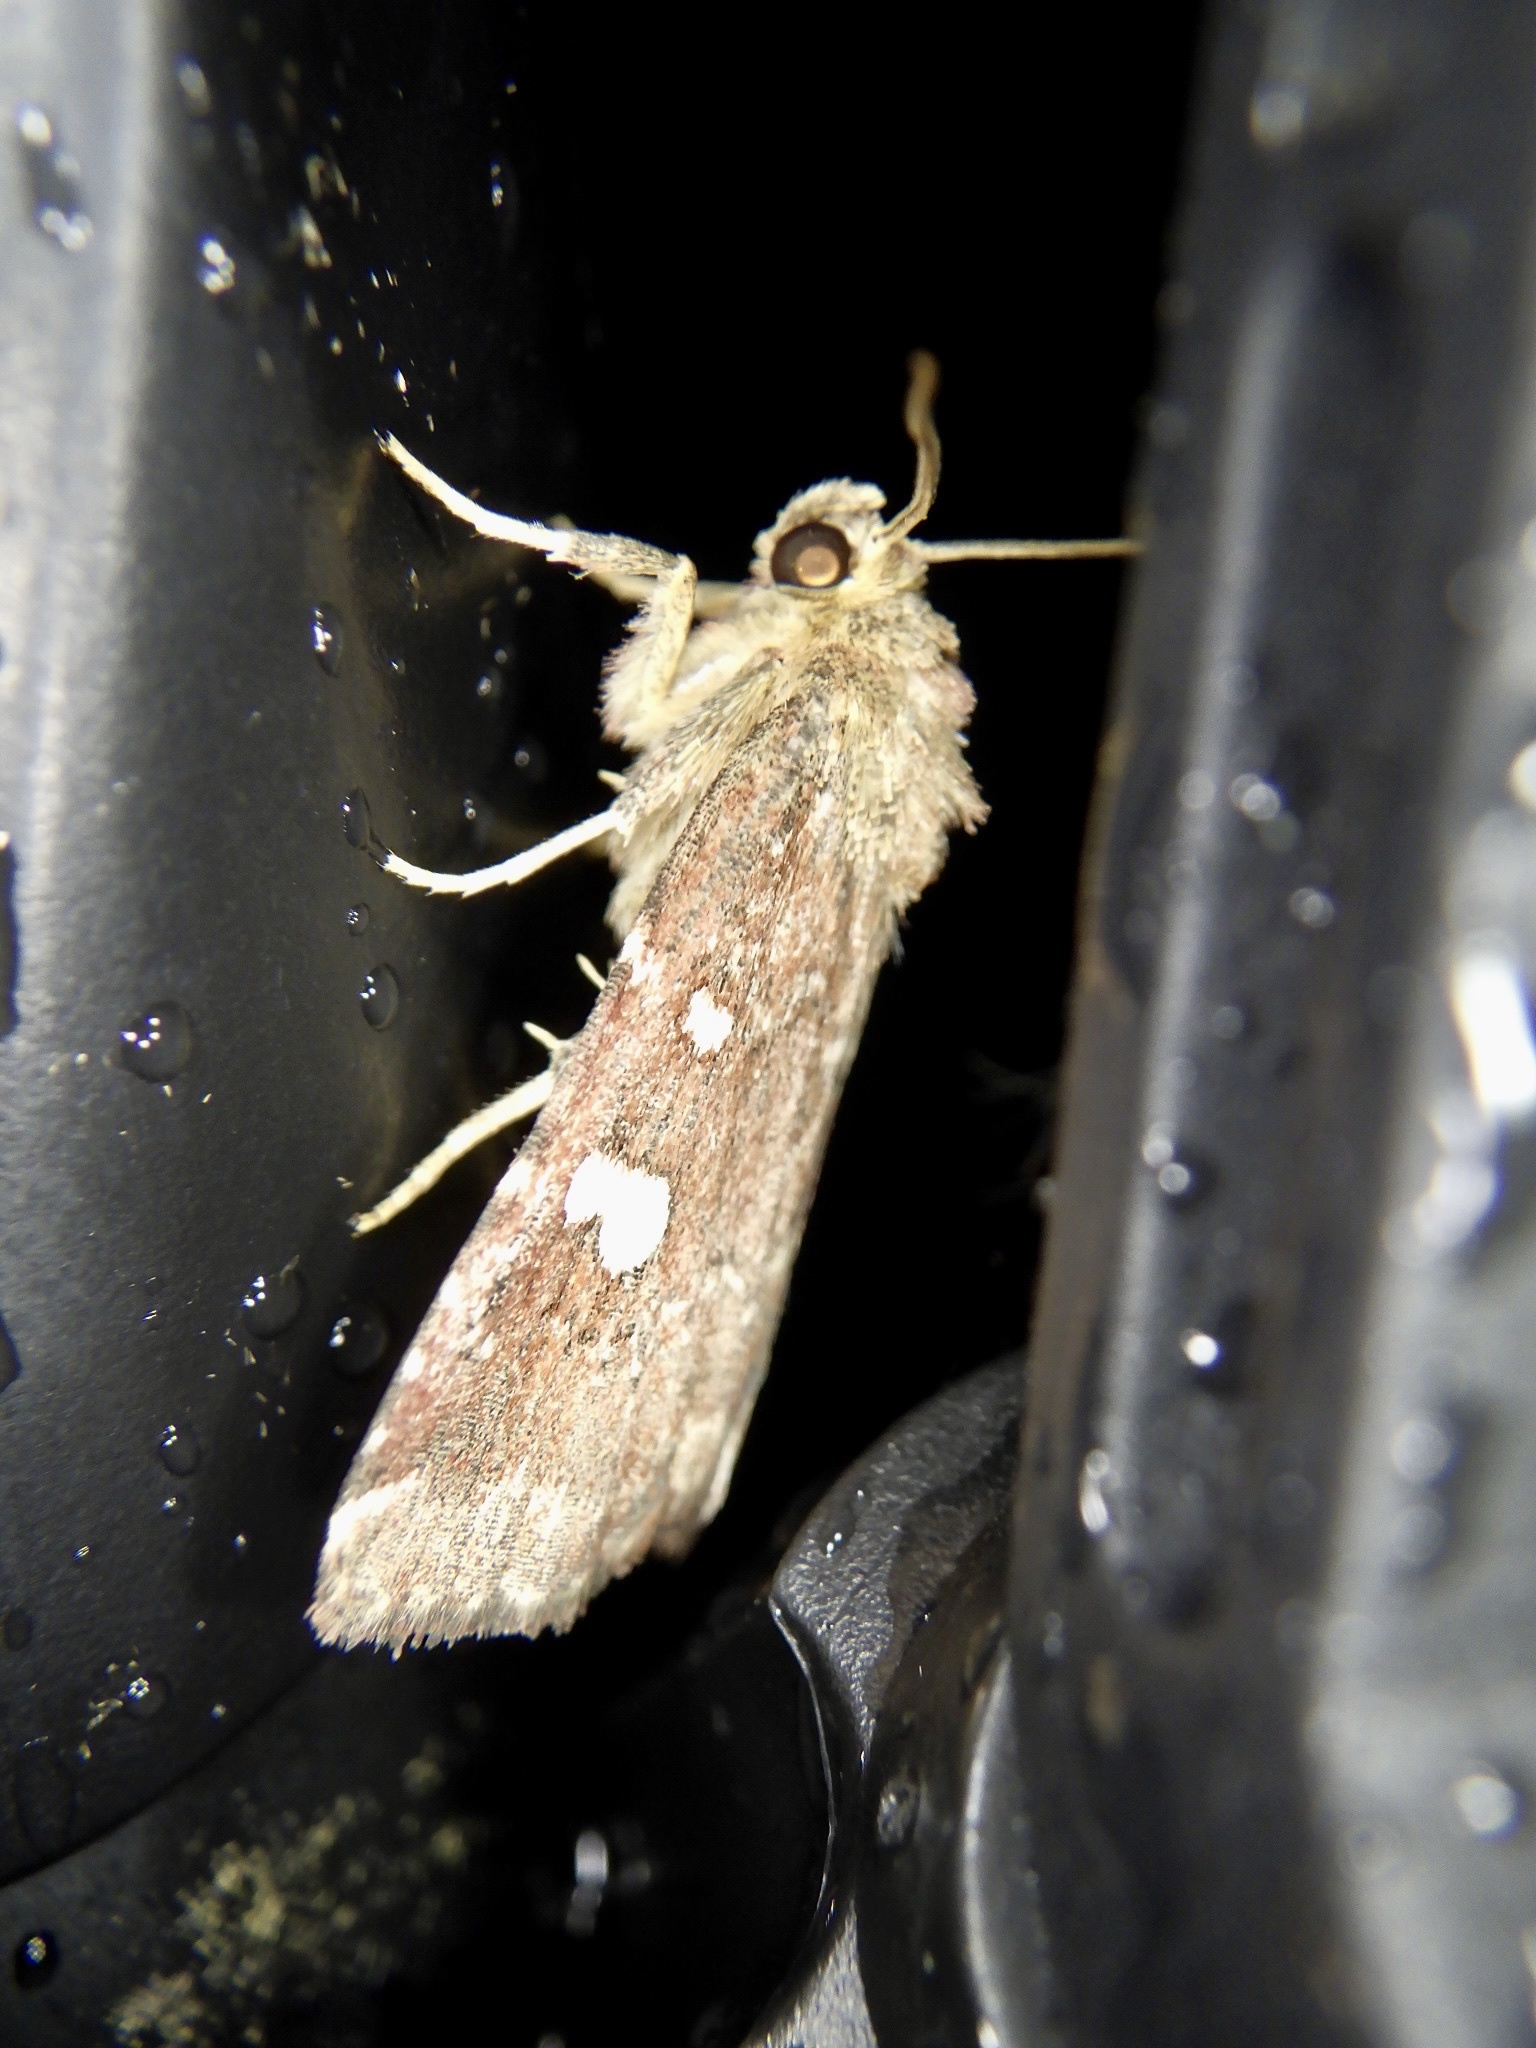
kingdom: Animalia
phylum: Arthropoda
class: Insecta
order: Lepidoptera
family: Noctuidae
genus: Acosmetia
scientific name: Acosmetia biguttula
